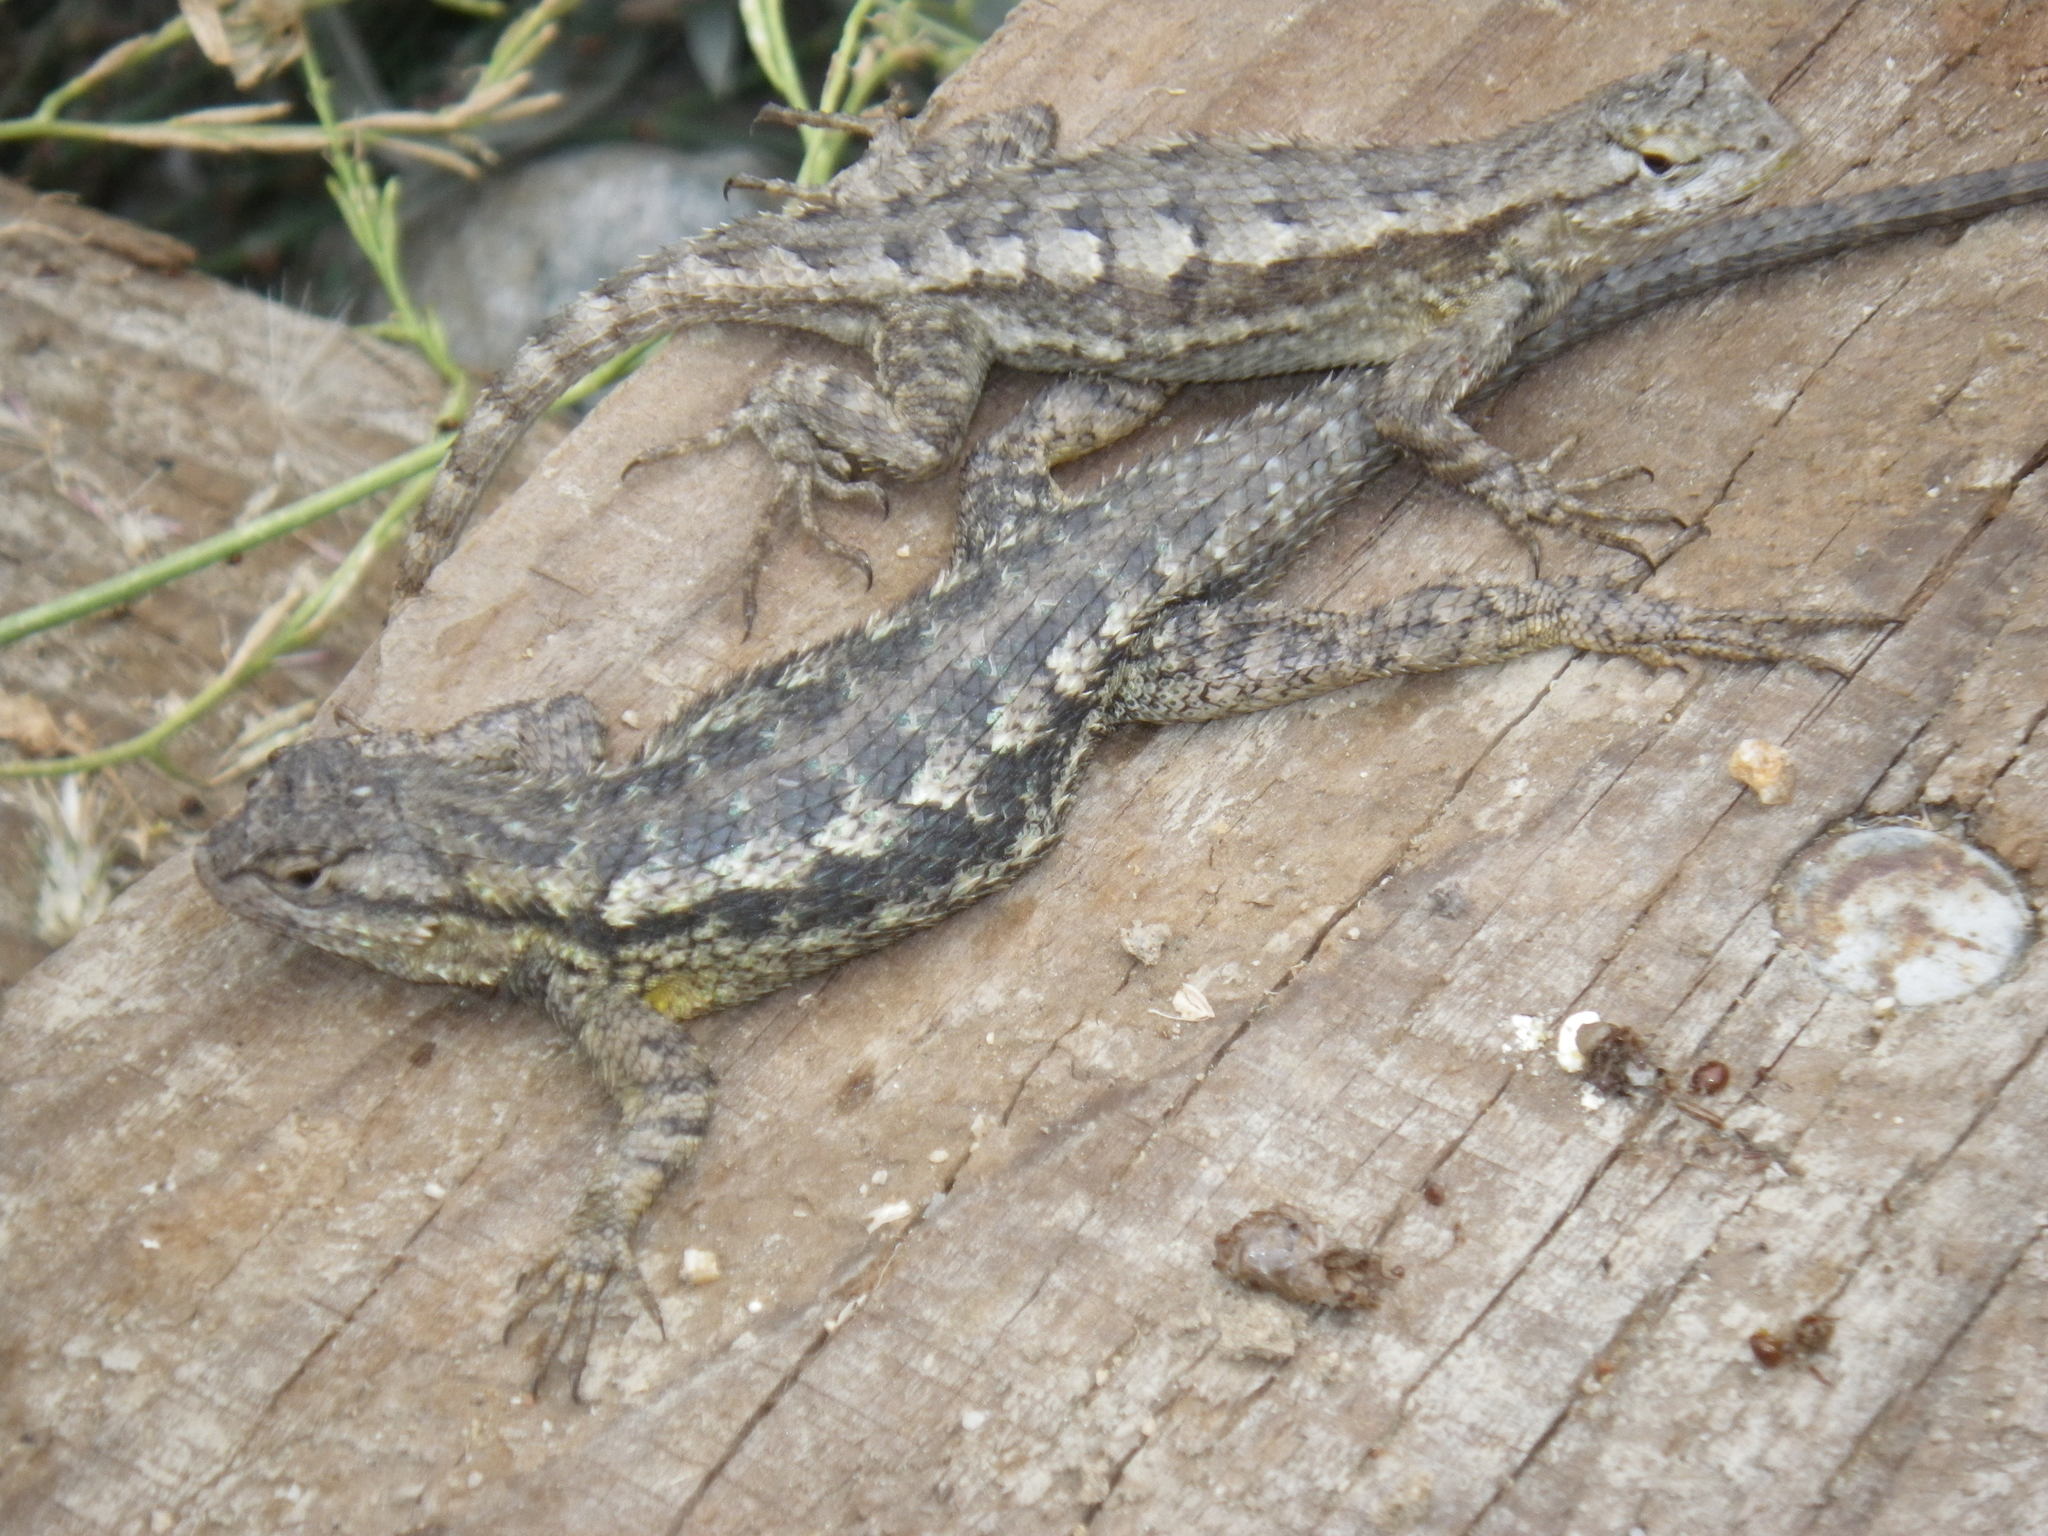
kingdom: Animalia
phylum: Chordata
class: Squamata
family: Phrynosomatidae
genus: Sceloporus
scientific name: Sceloporus occidentalis
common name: Western fence lizard
